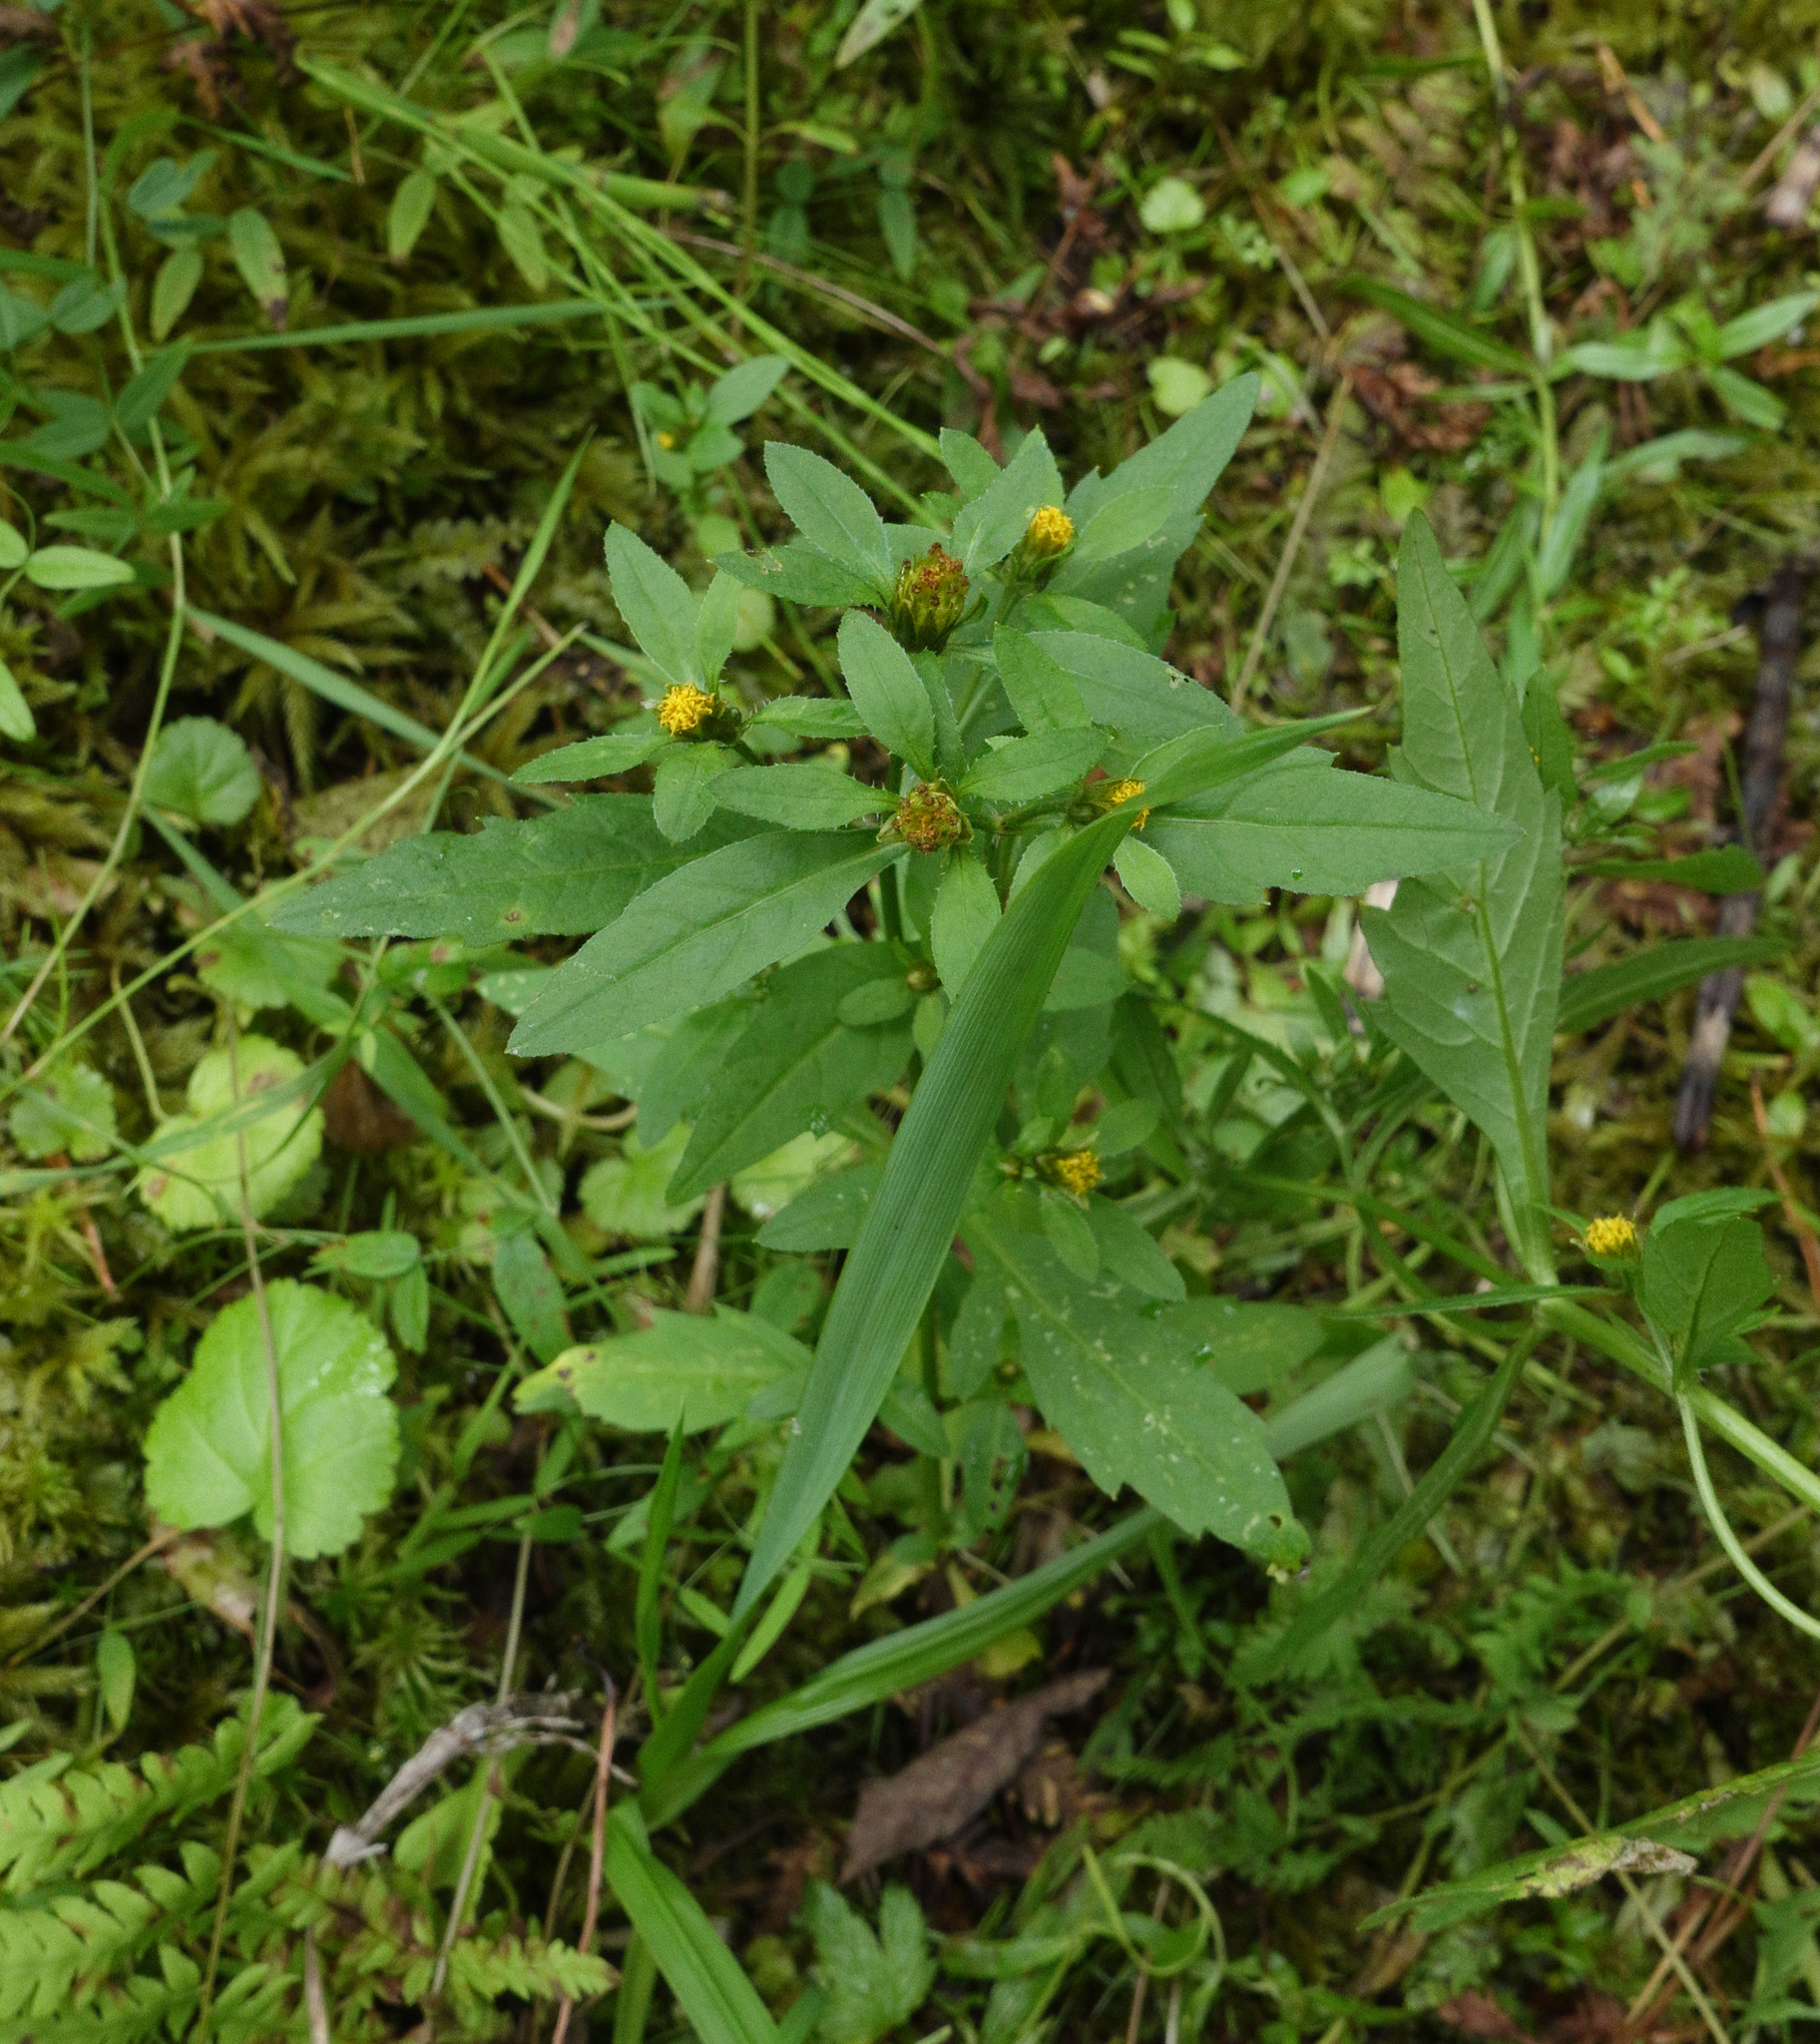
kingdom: Plantae
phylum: Tracheophyta
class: Magnoliopsida
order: Asterales
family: Asteraceae
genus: Bidens
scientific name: Bidens tripartita
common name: Trifid bur-marigold
